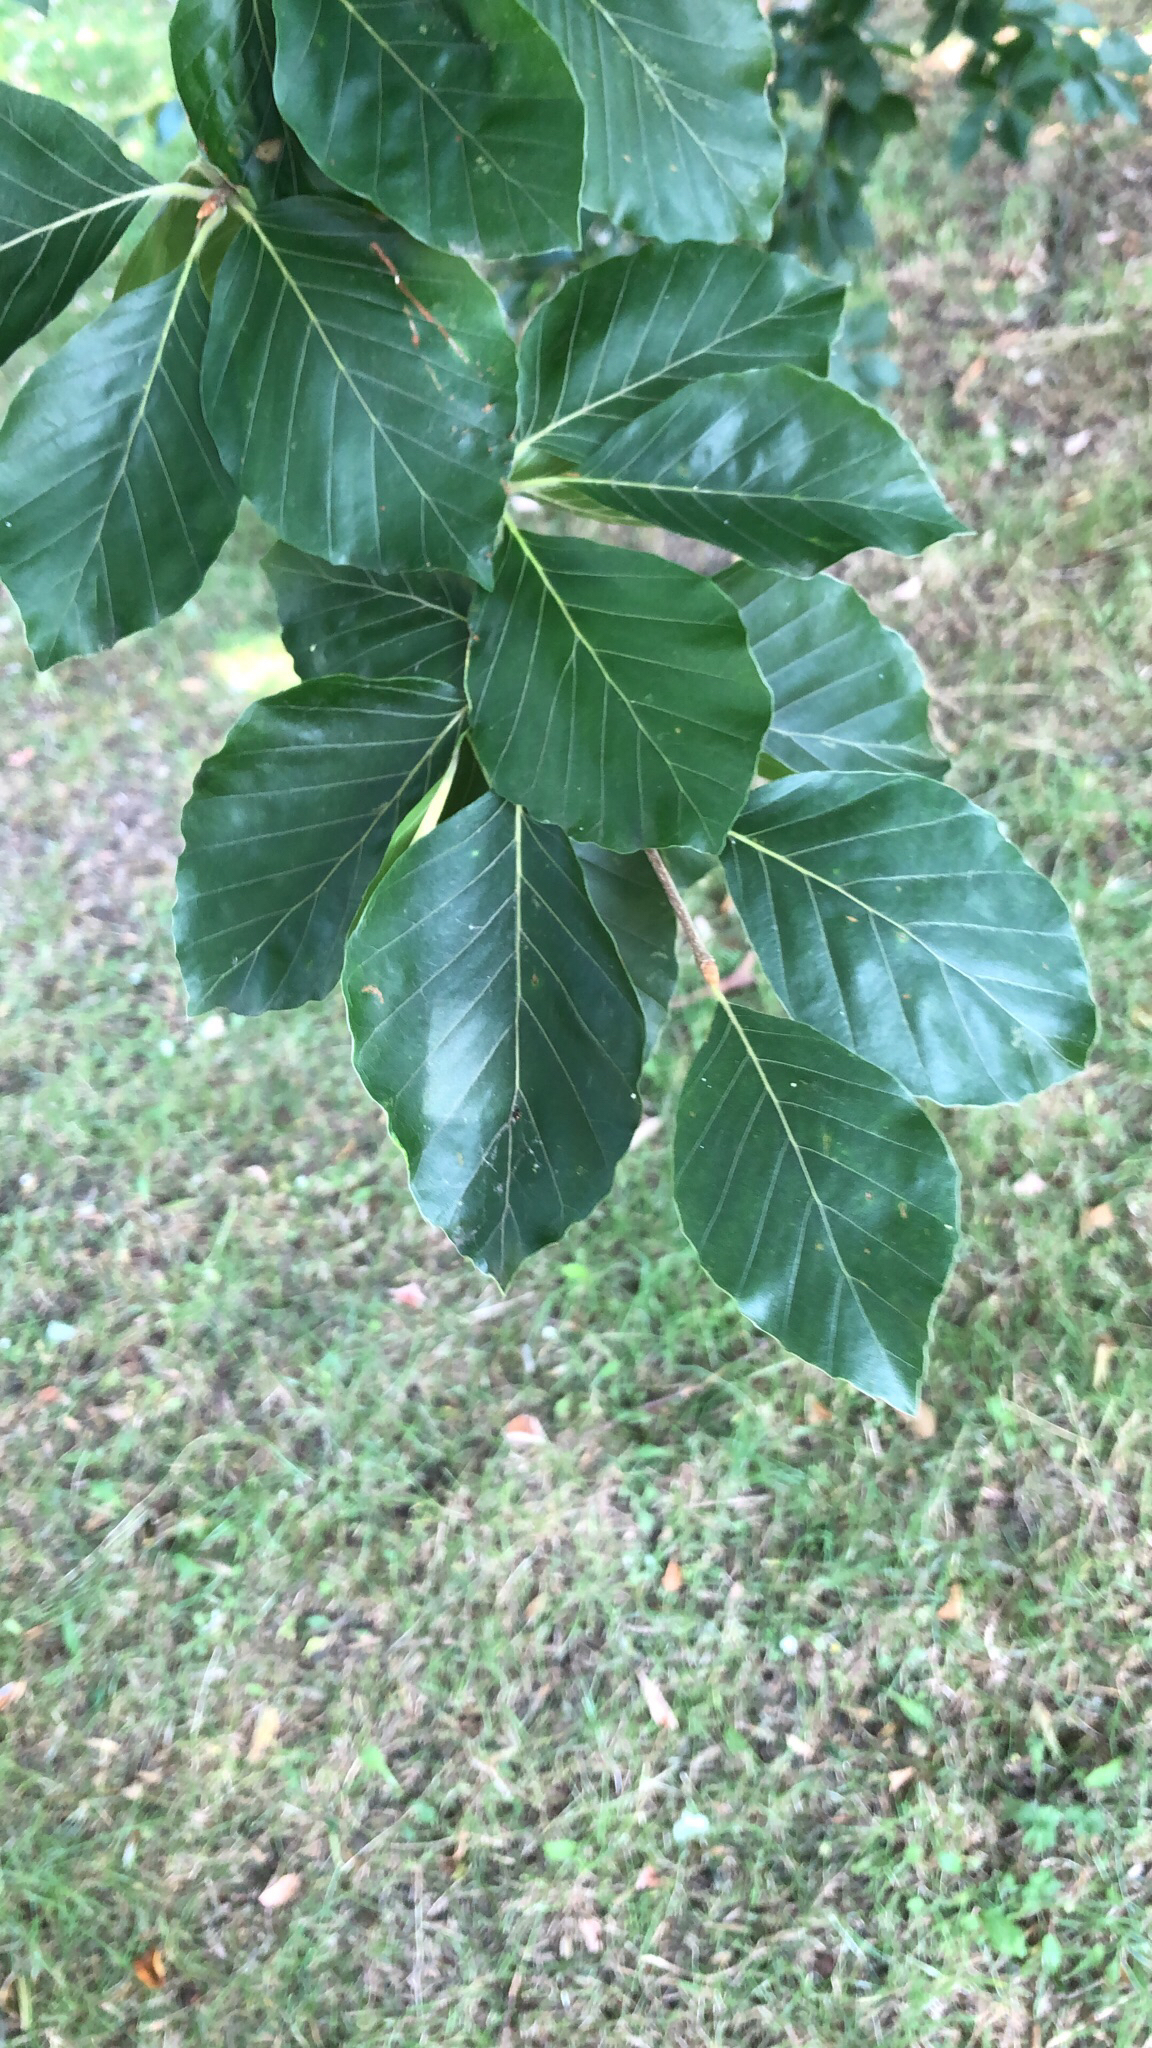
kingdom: Plantae
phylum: Tracheophyta
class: Magnoliopsida
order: Fagales
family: Fagaceae
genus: Fagus
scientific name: Fagus sylvatica
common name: Beech
